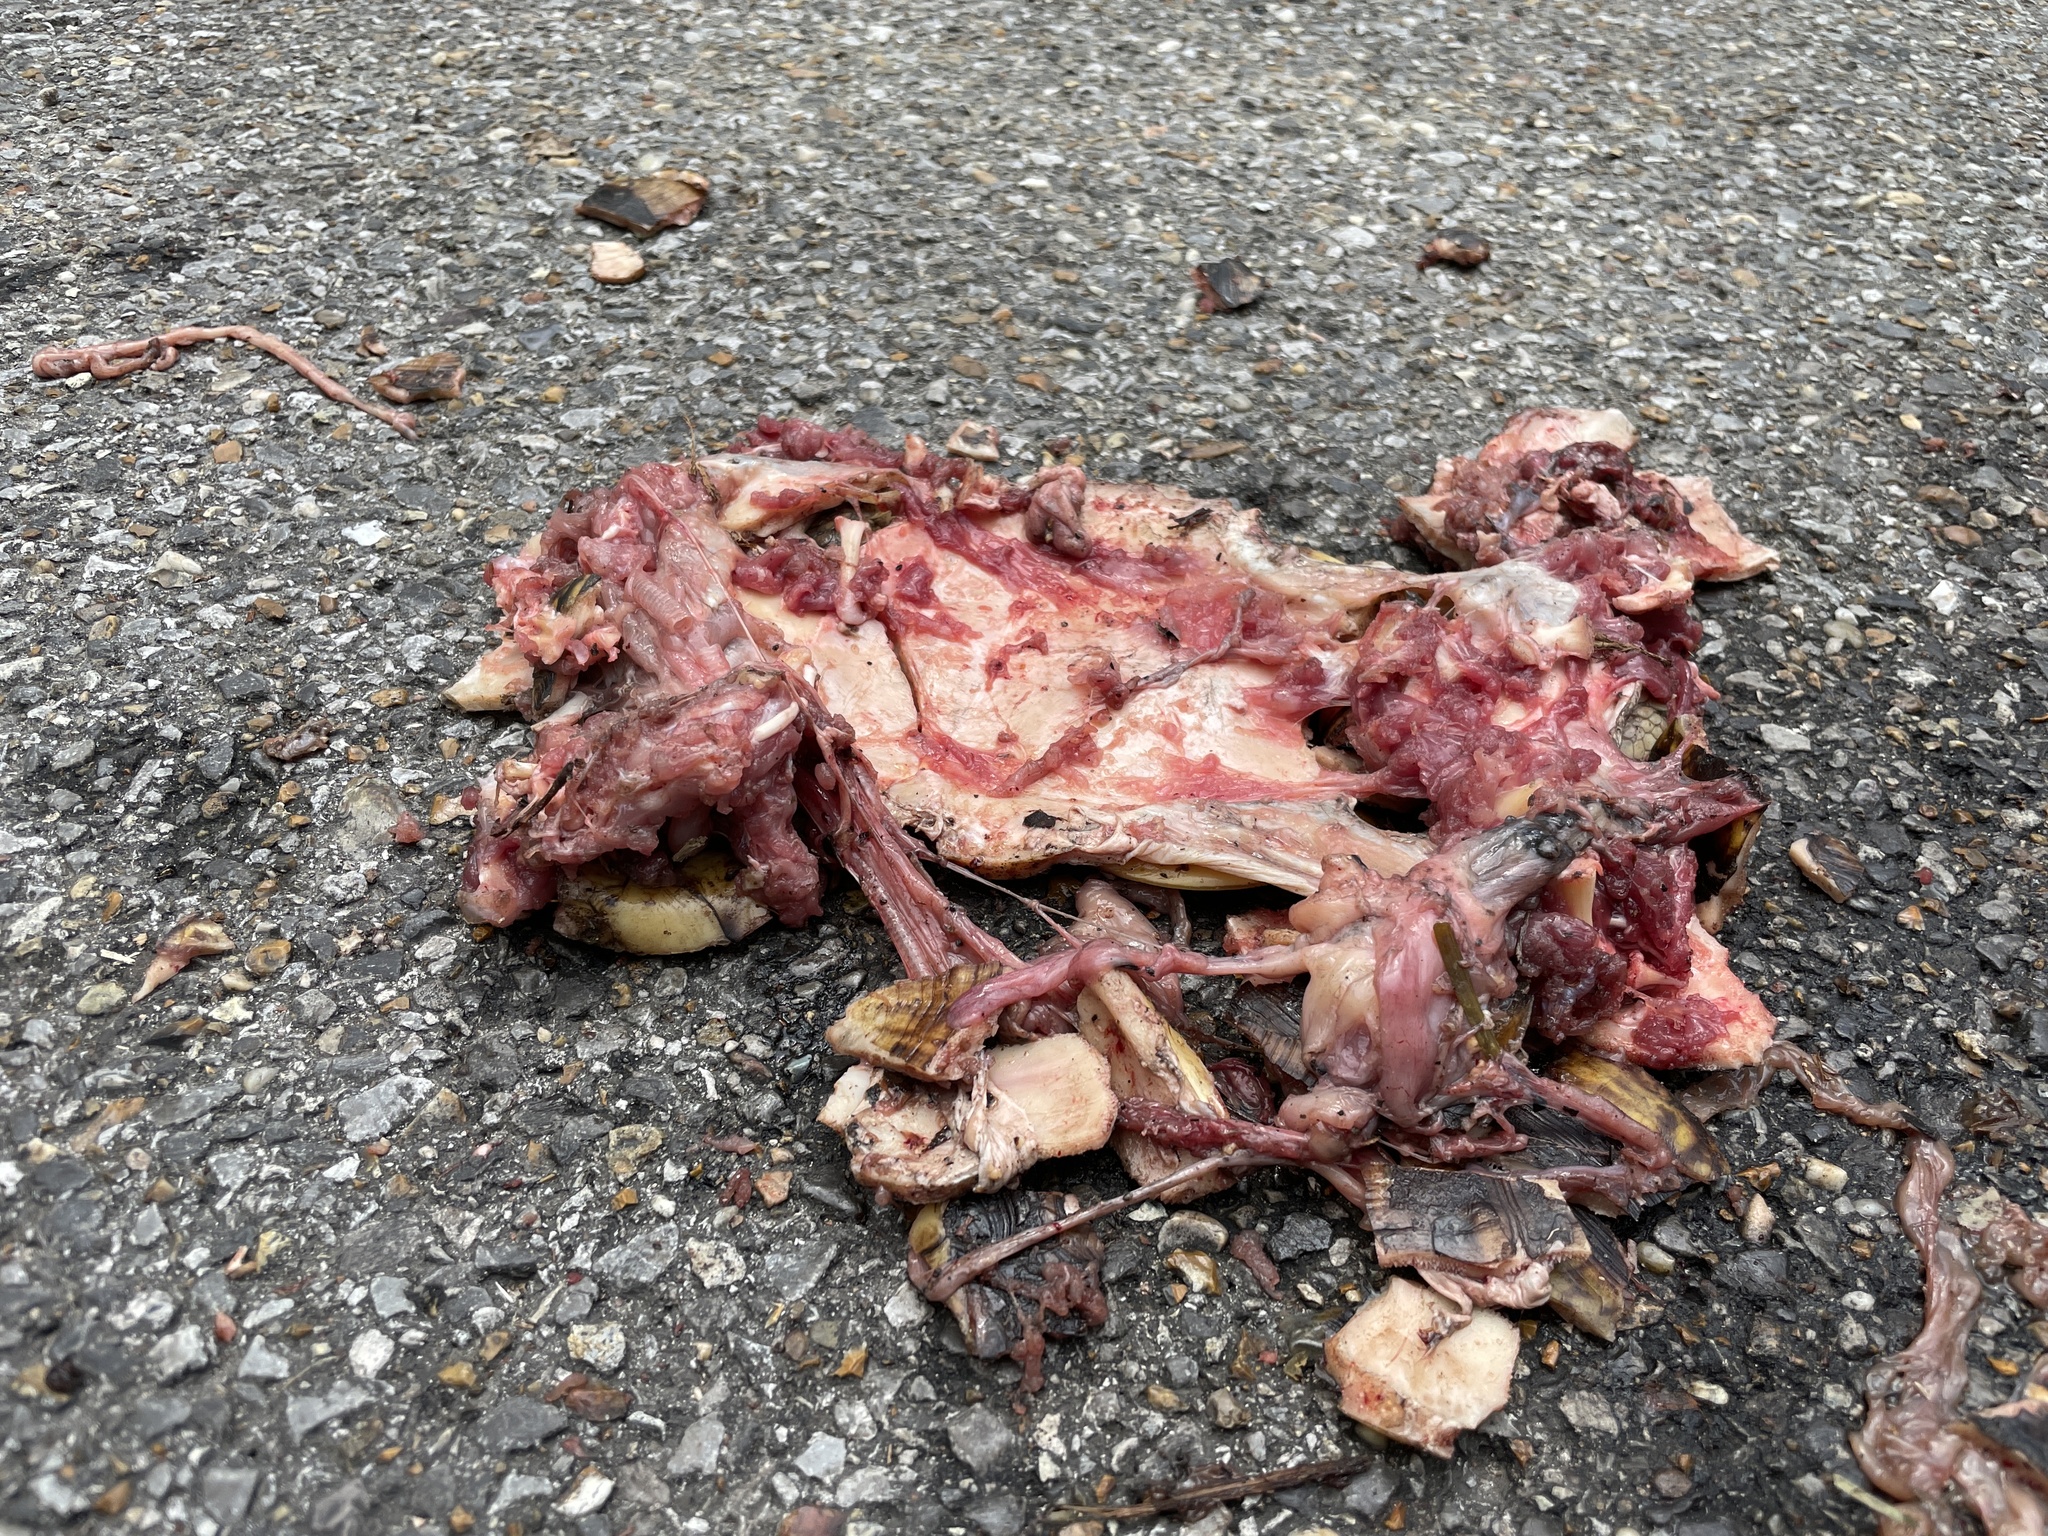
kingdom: Animalia
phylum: Chordata
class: Testudines
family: Emydidae
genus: Terrapene
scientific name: Terrapene carolina
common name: Common box turtle
